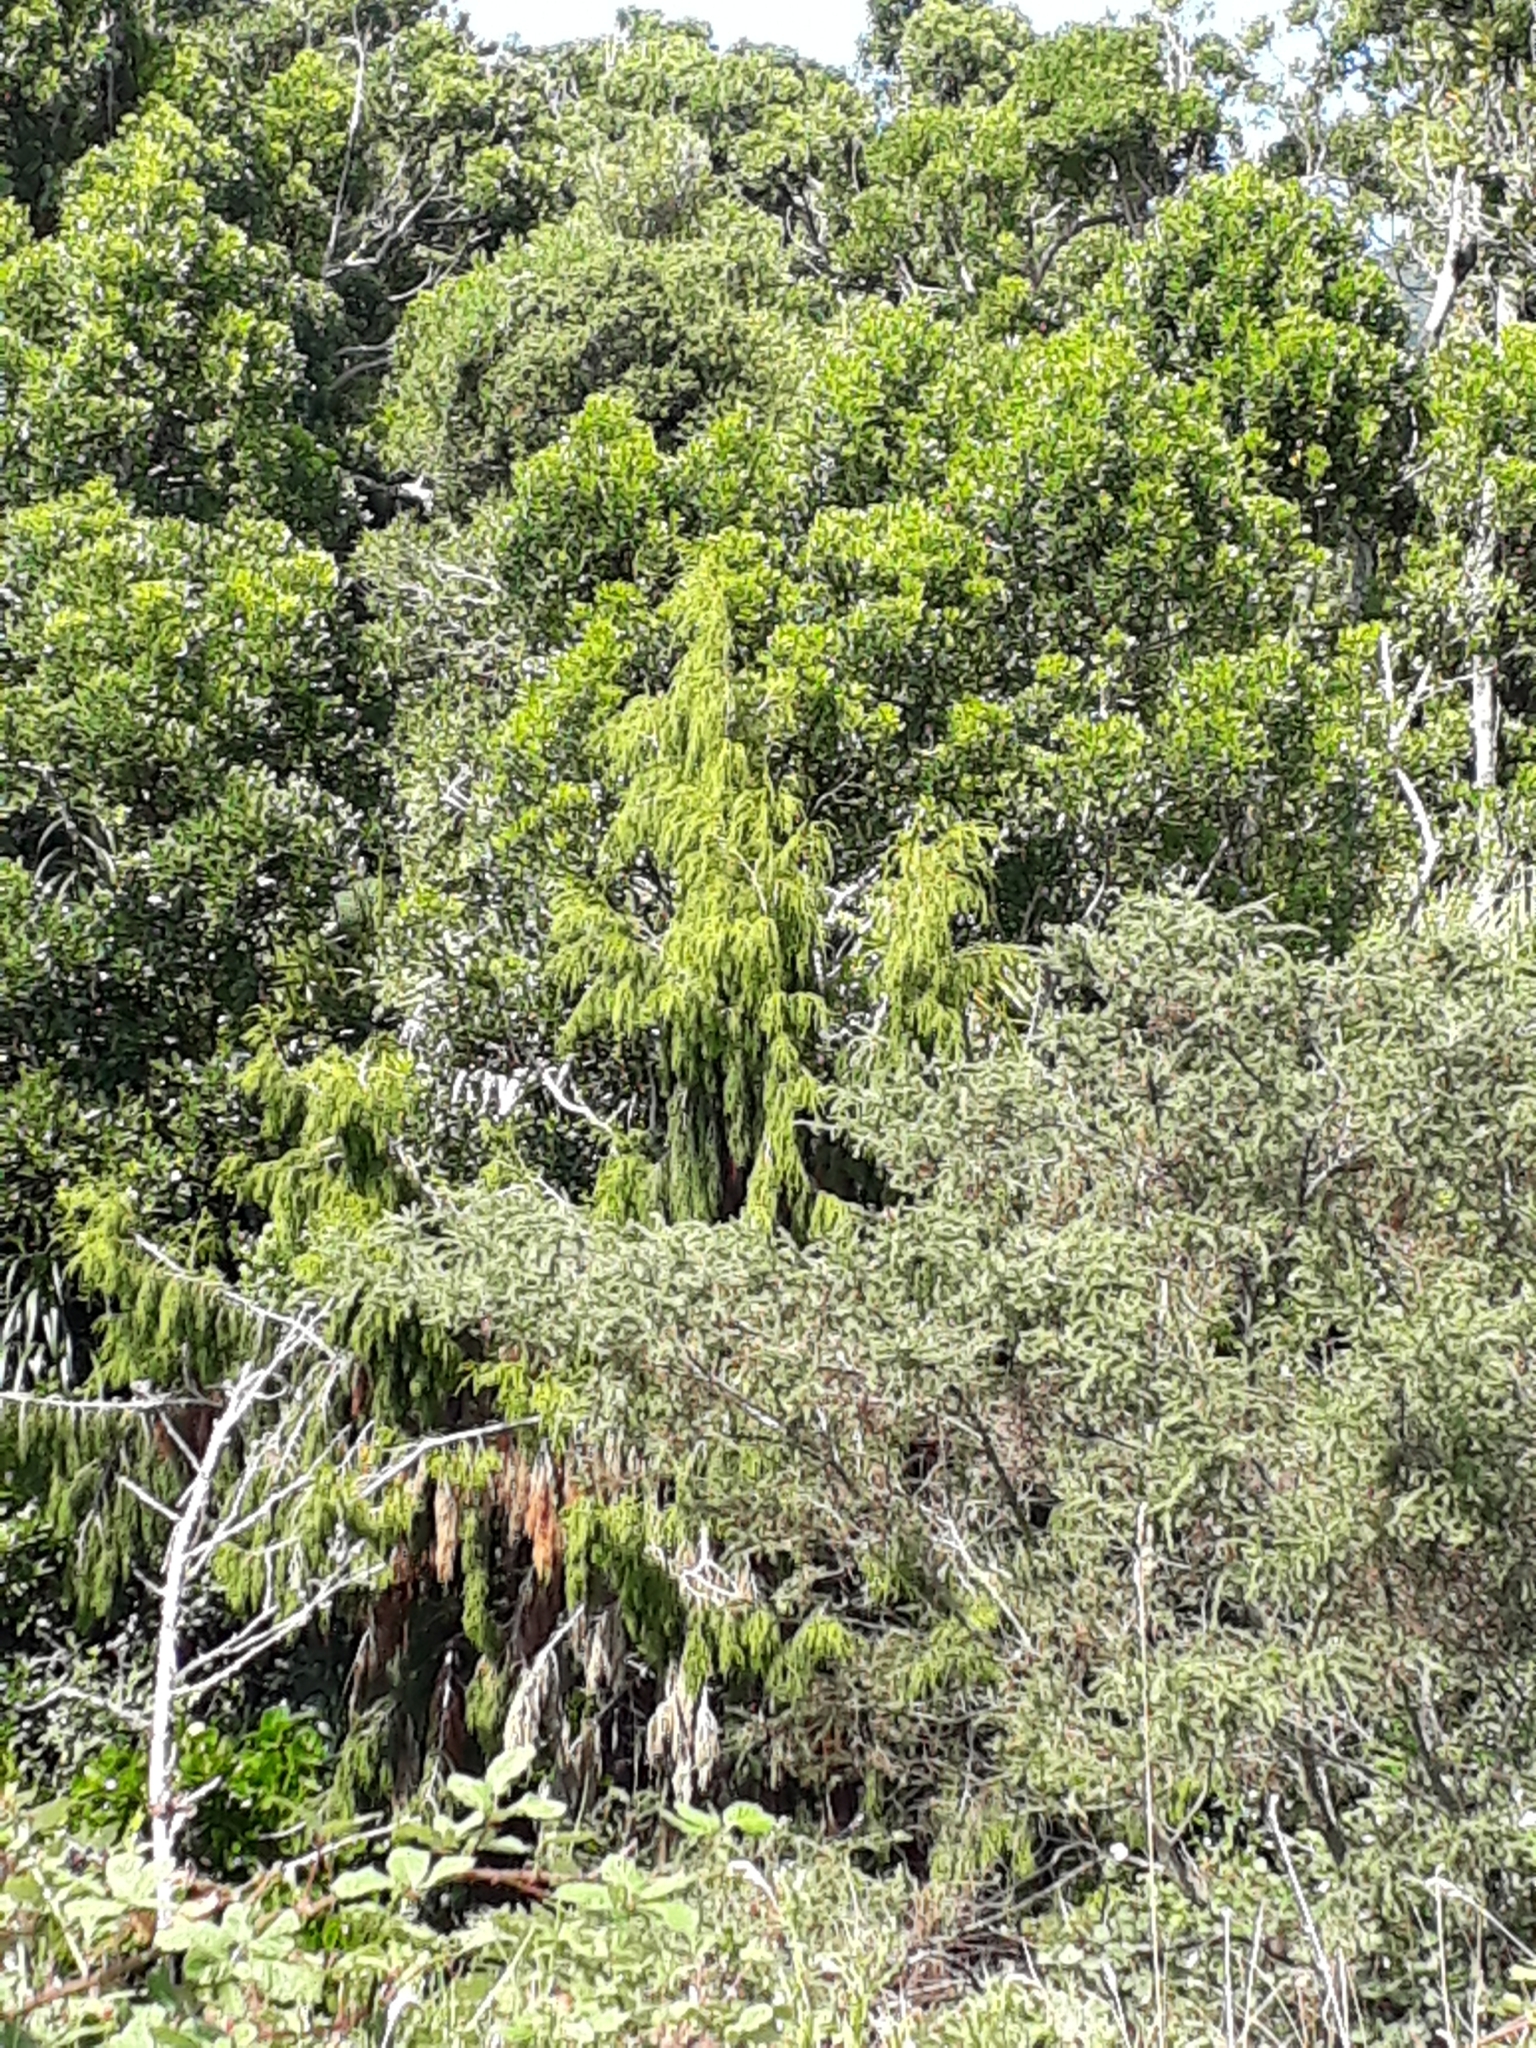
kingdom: Plantae
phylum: Tracheophyta
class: Pinopsida
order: Pinales
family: Podocarpaceae
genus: Dacrydium
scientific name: Dacrydium cupressinum
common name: Red pine
